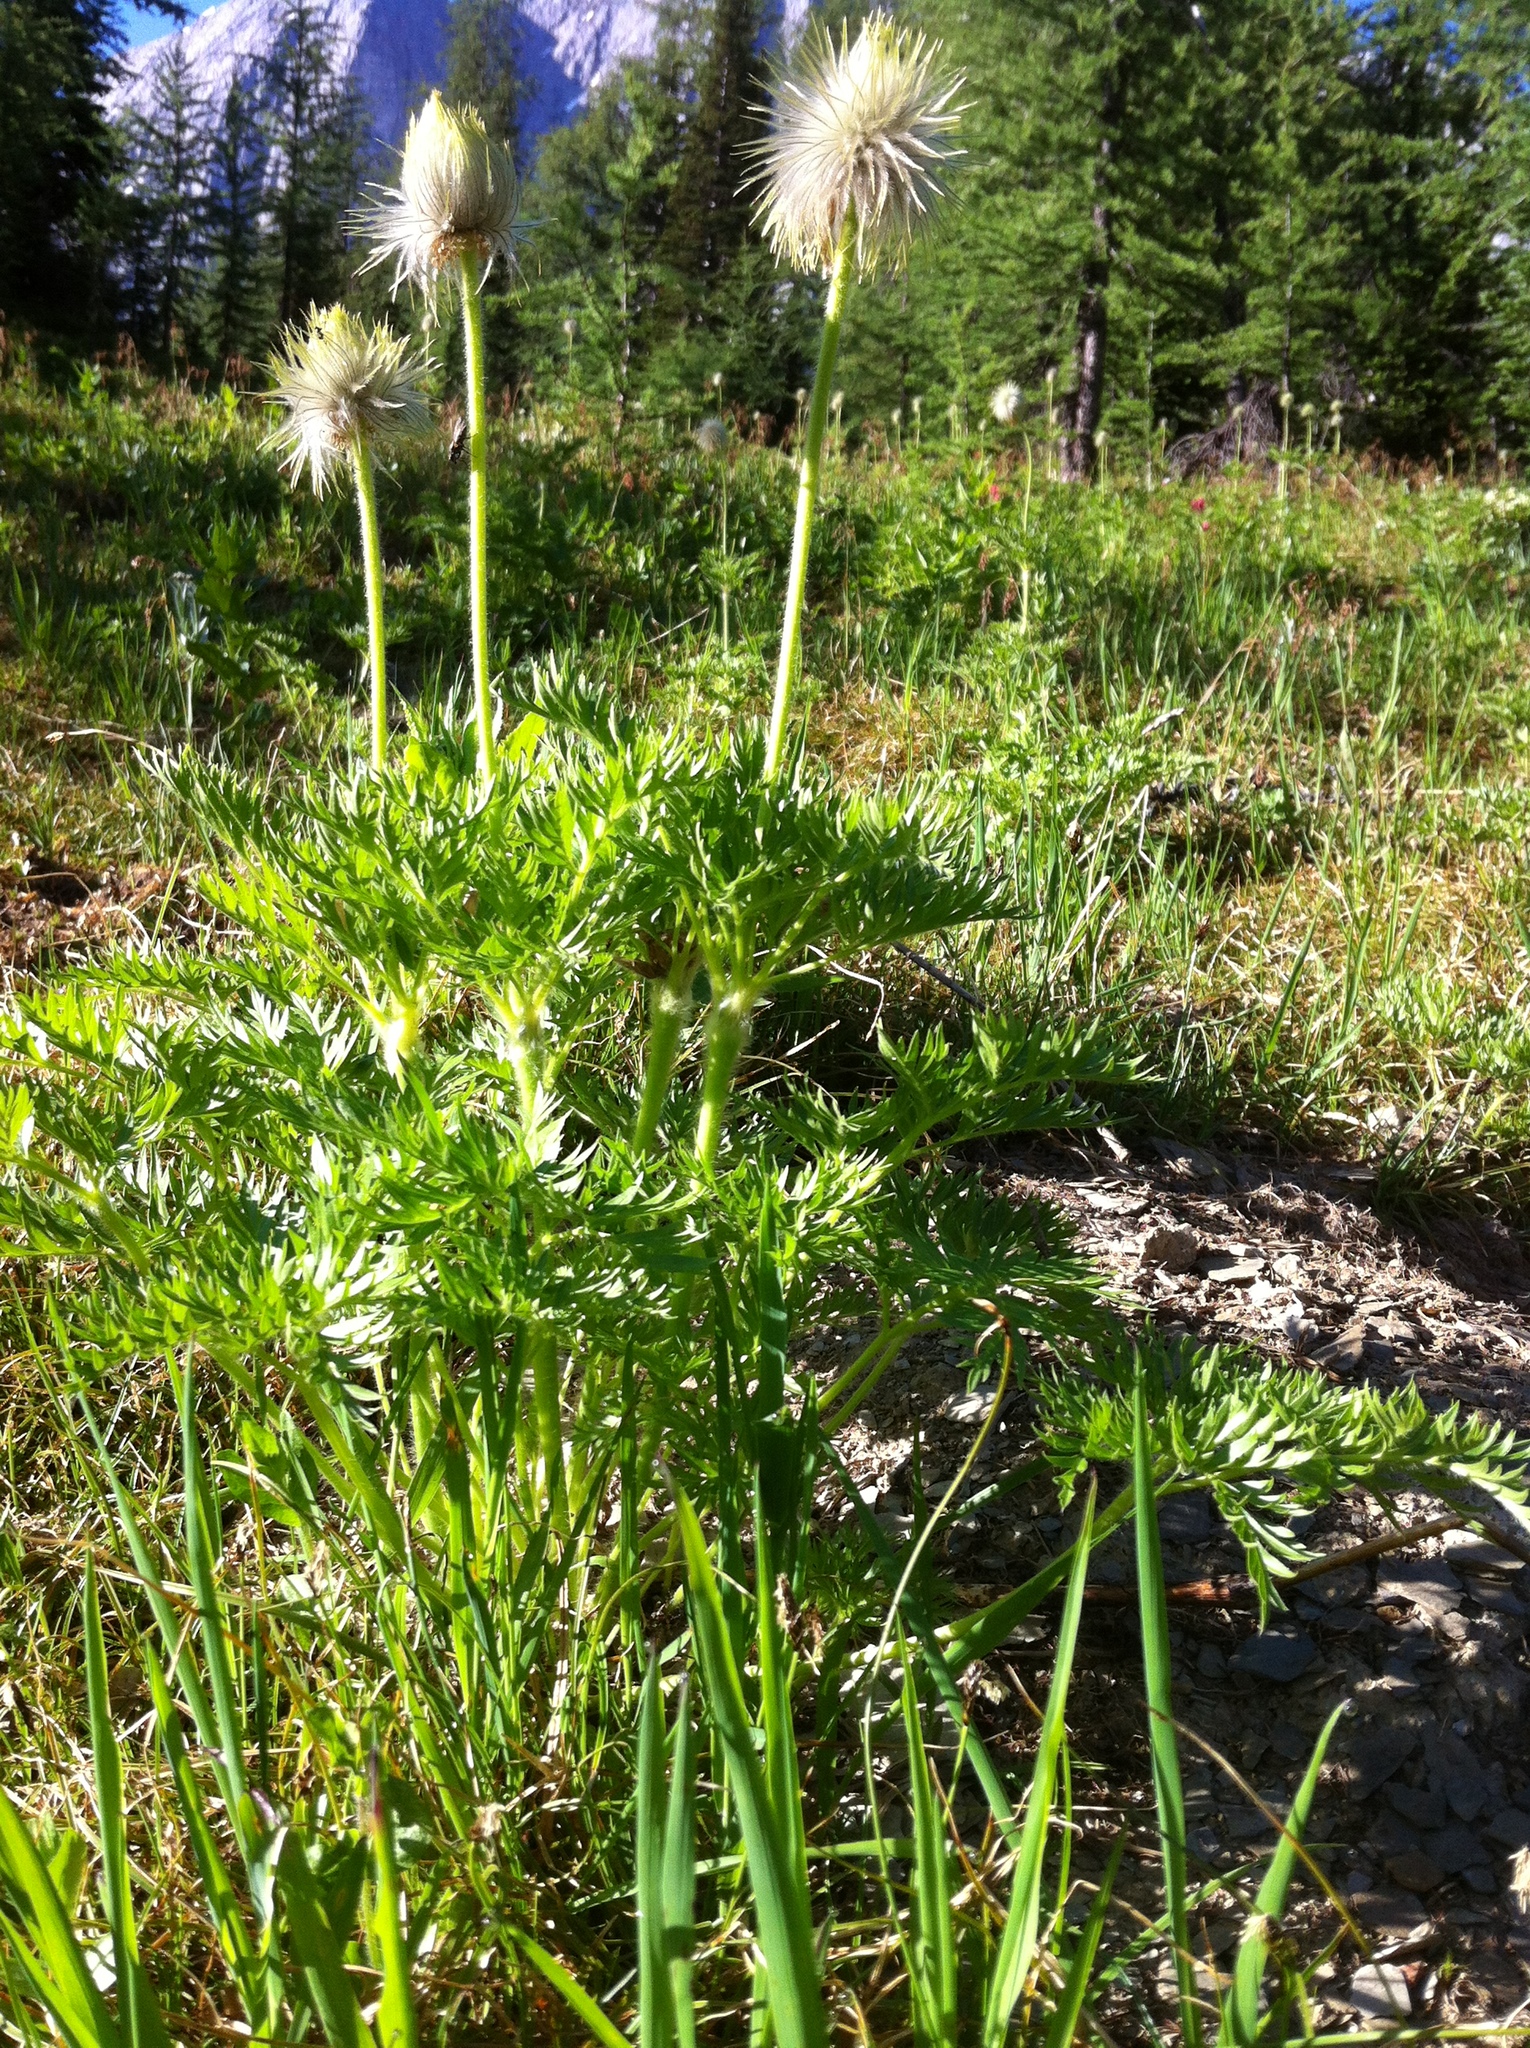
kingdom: Plantae
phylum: Tracheophyta
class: Magnoliopsida
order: Ranunculales
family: Ranunculaceae
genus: Pulsatilla
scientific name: Pulsatilla occidentalis
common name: Mountain pasqueflower
